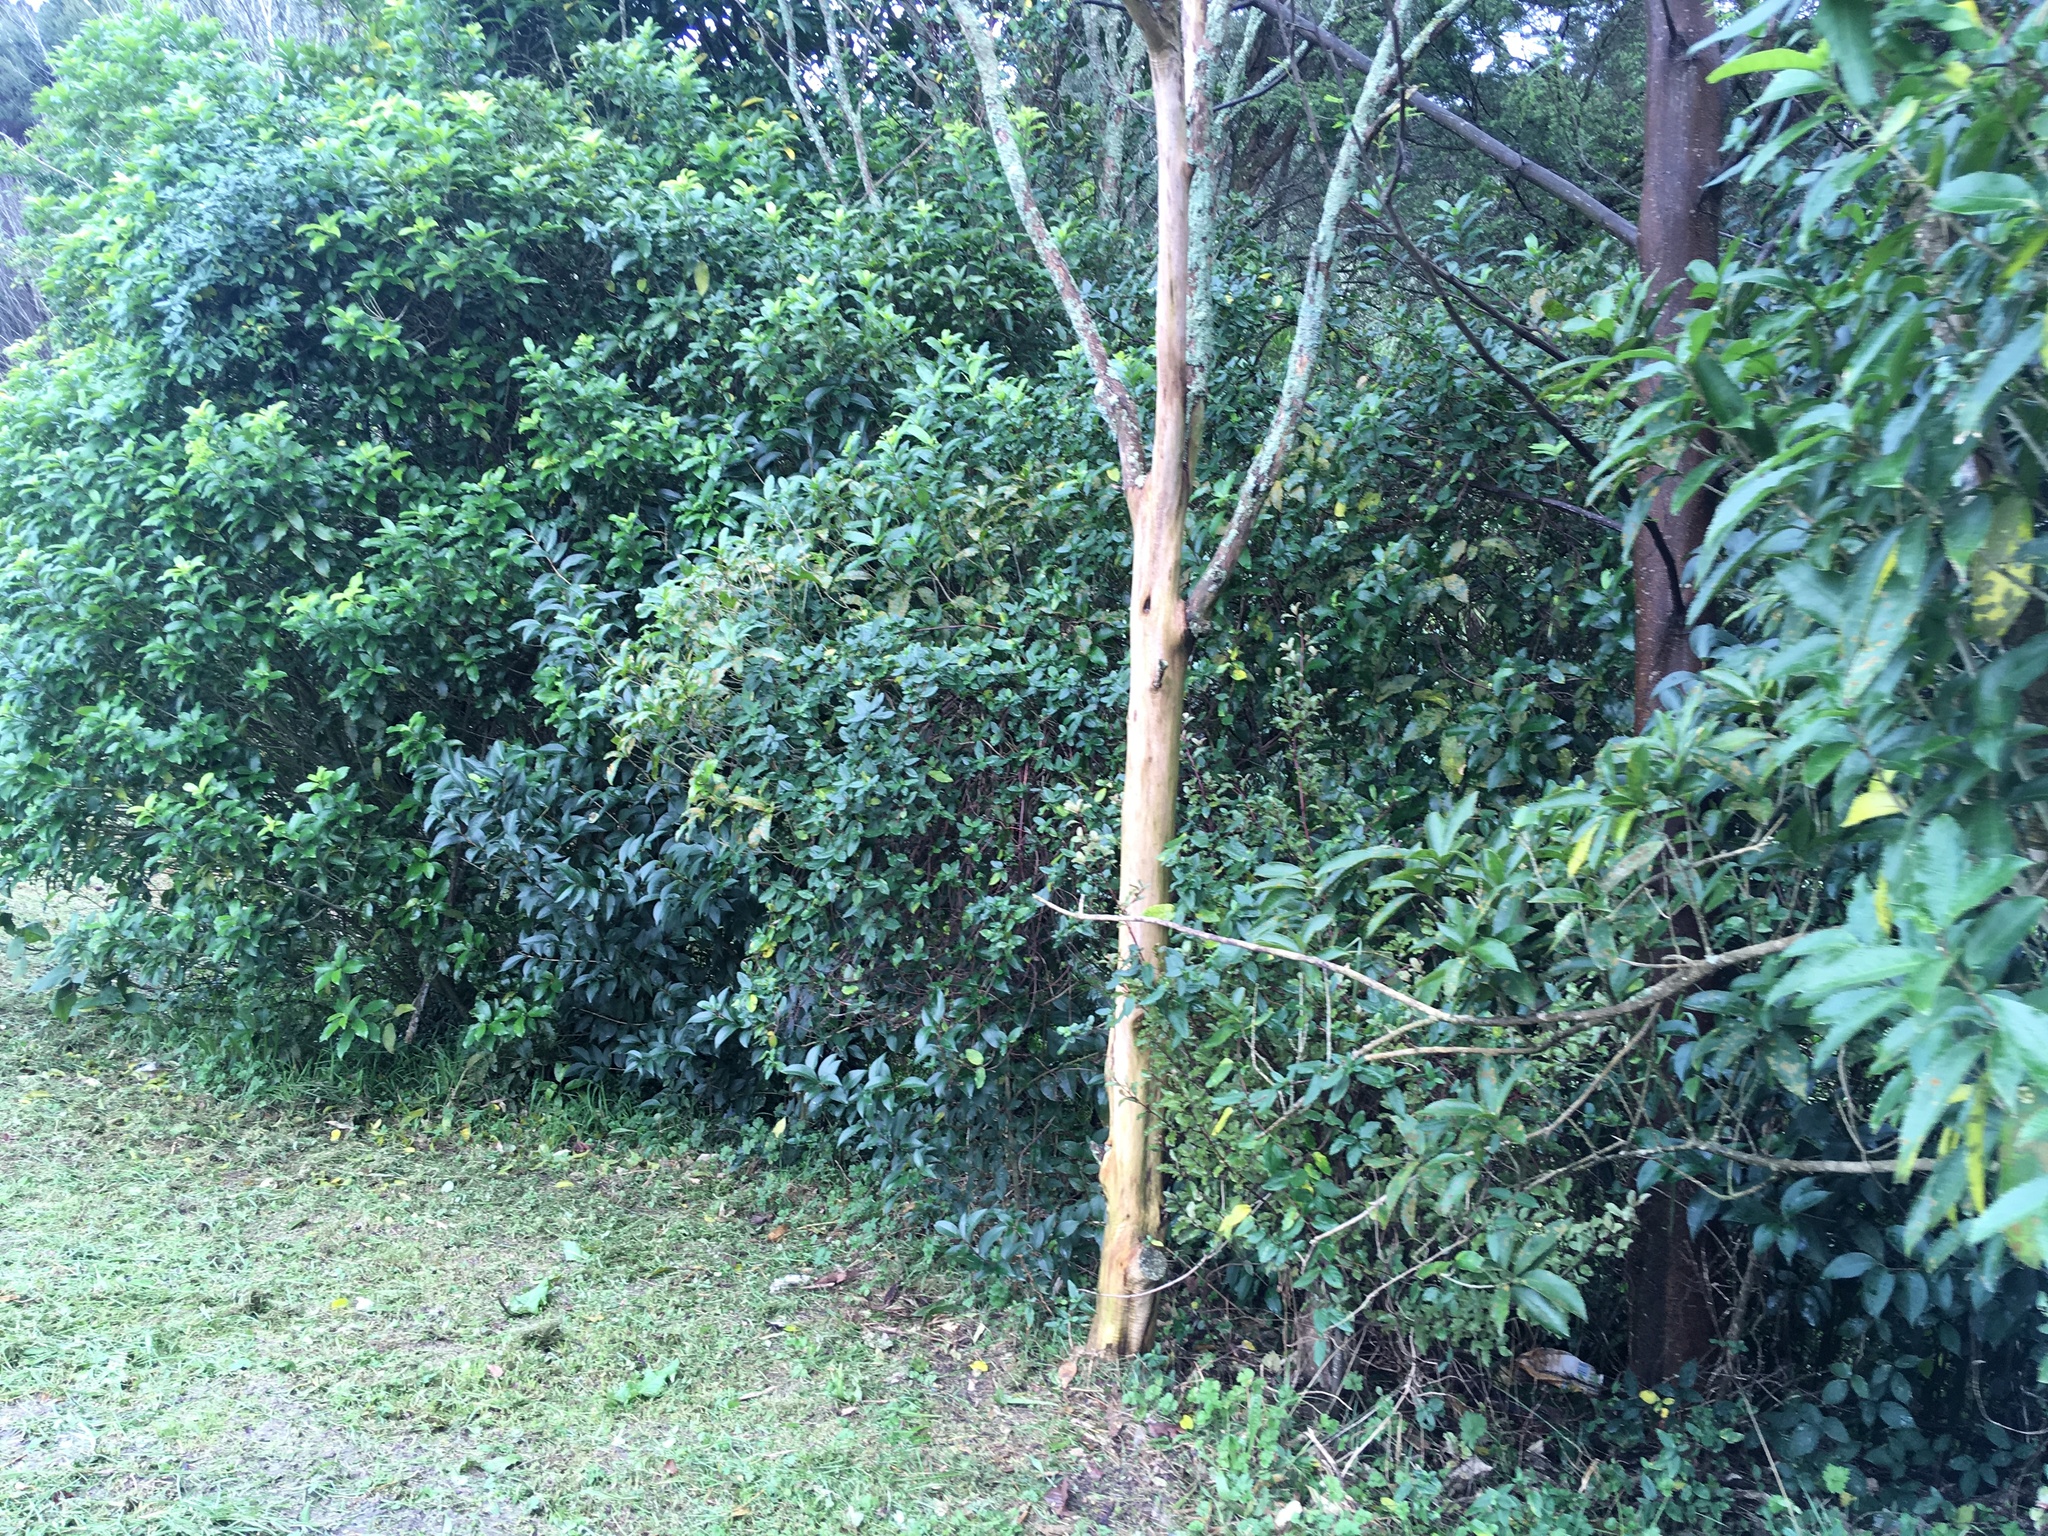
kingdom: Plantae
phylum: Tracheophyta
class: Magnoliopsida
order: Fabales
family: Fabaceae
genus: Paraserianthes
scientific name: Paraserianthes lophantha
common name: Plume albizia
